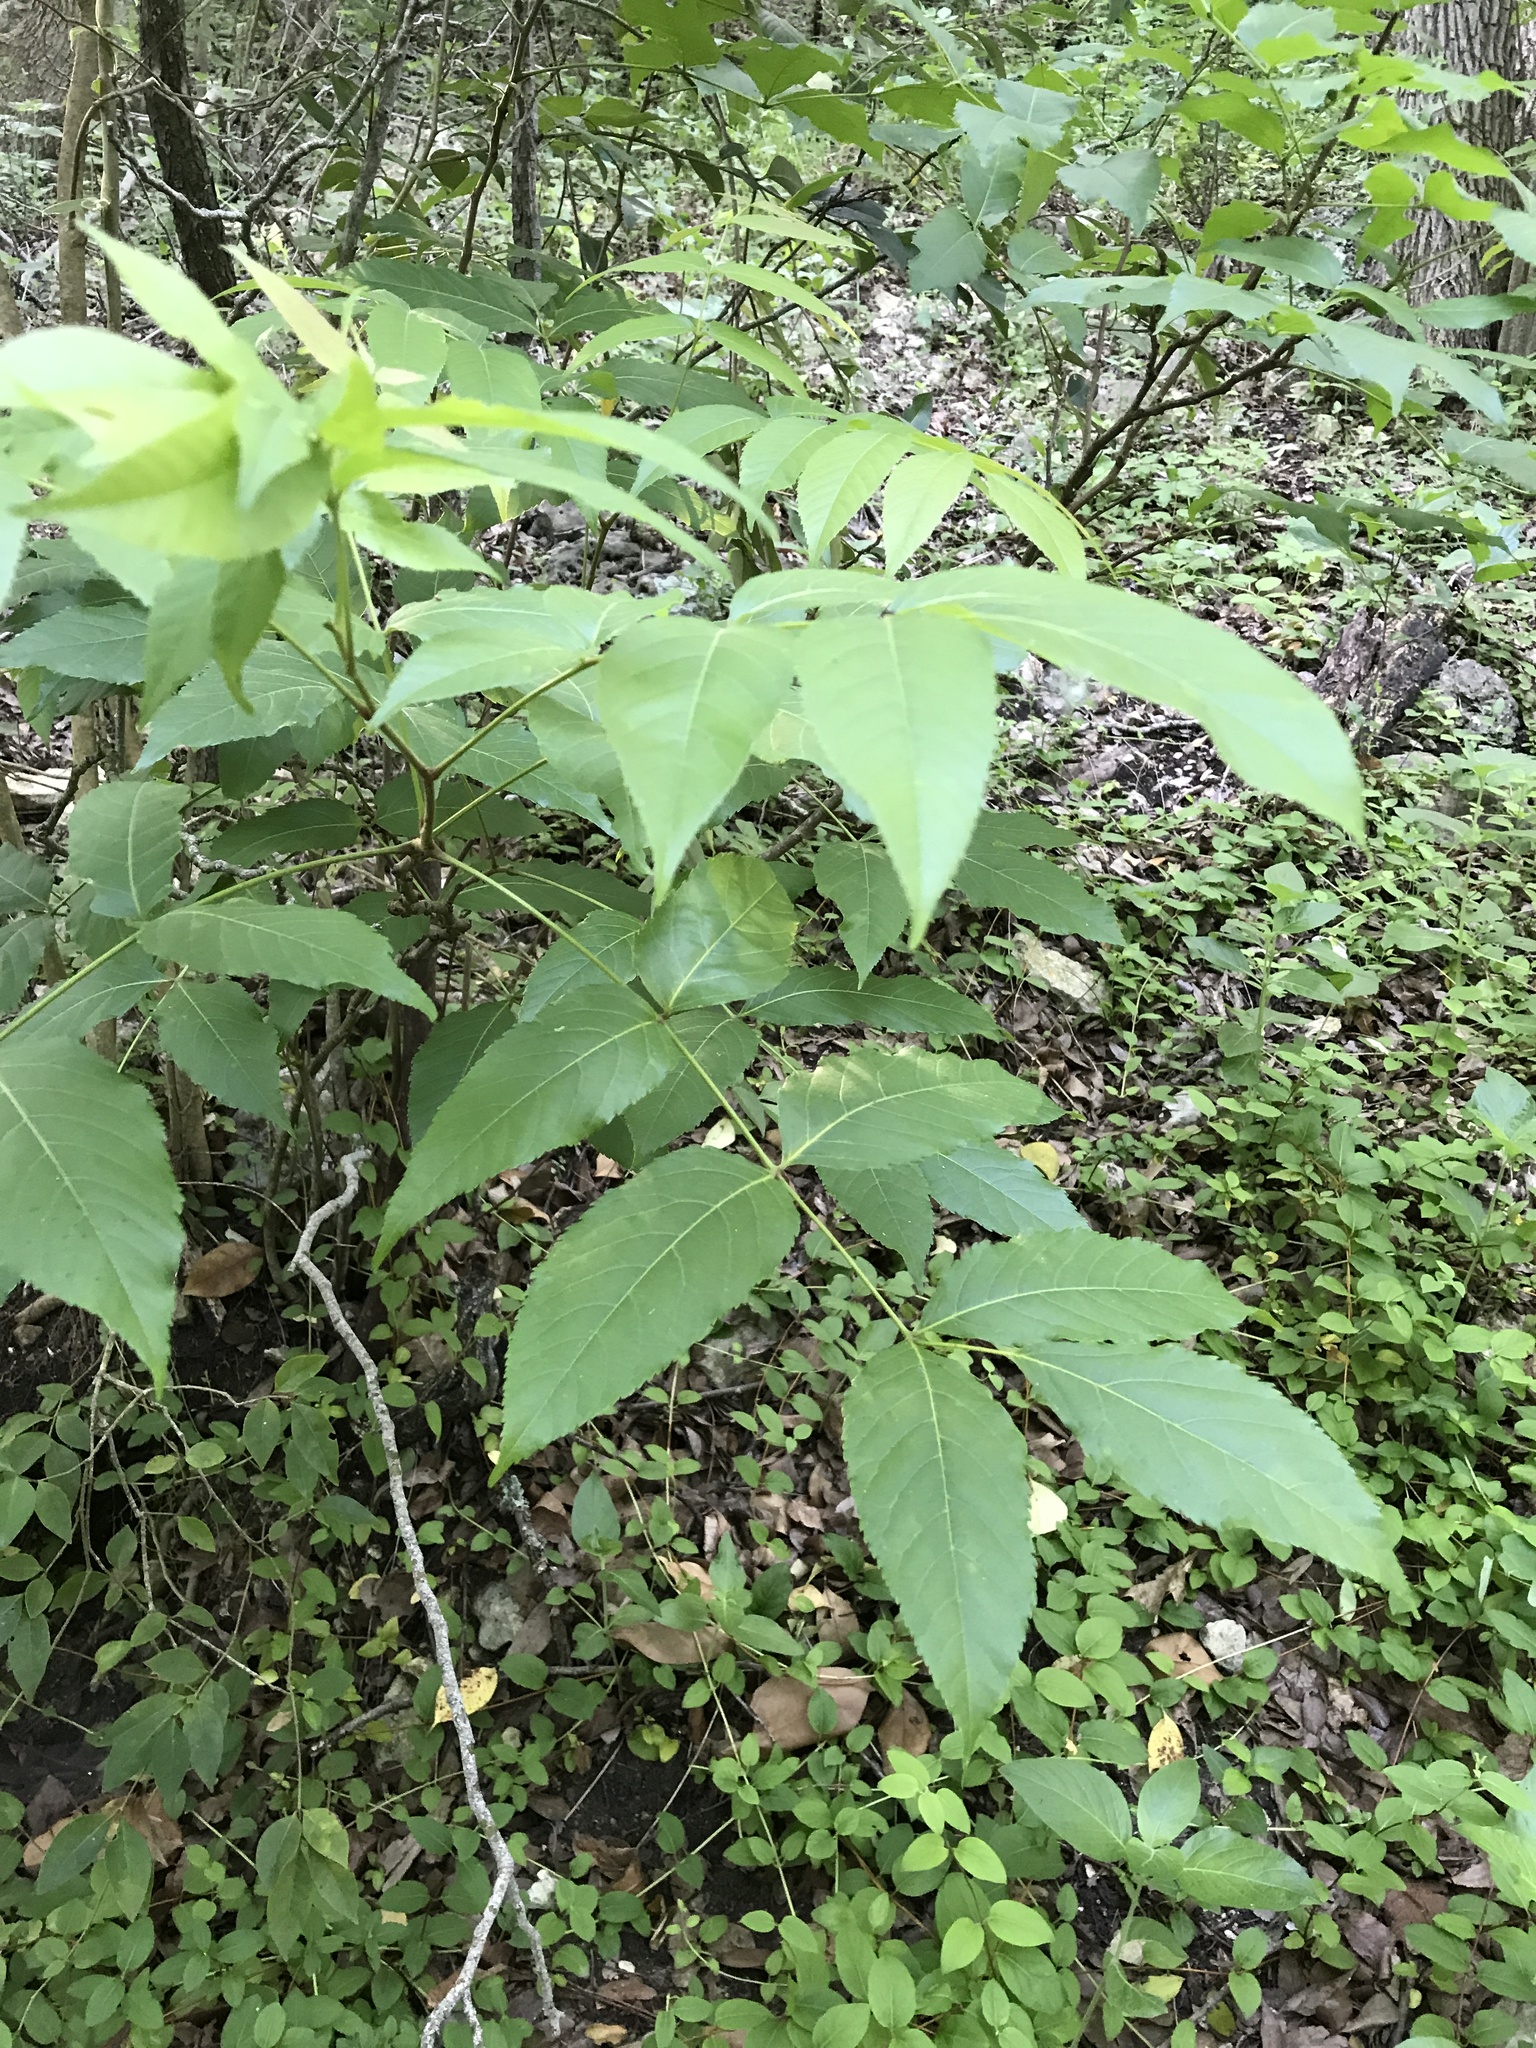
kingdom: Plantae
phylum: Tracheophyta
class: Magnoliopsida
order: Sapindales
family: Sapindaceae
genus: Ungnadia
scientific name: Ungnadia speciosa
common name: Texas-buckeye
